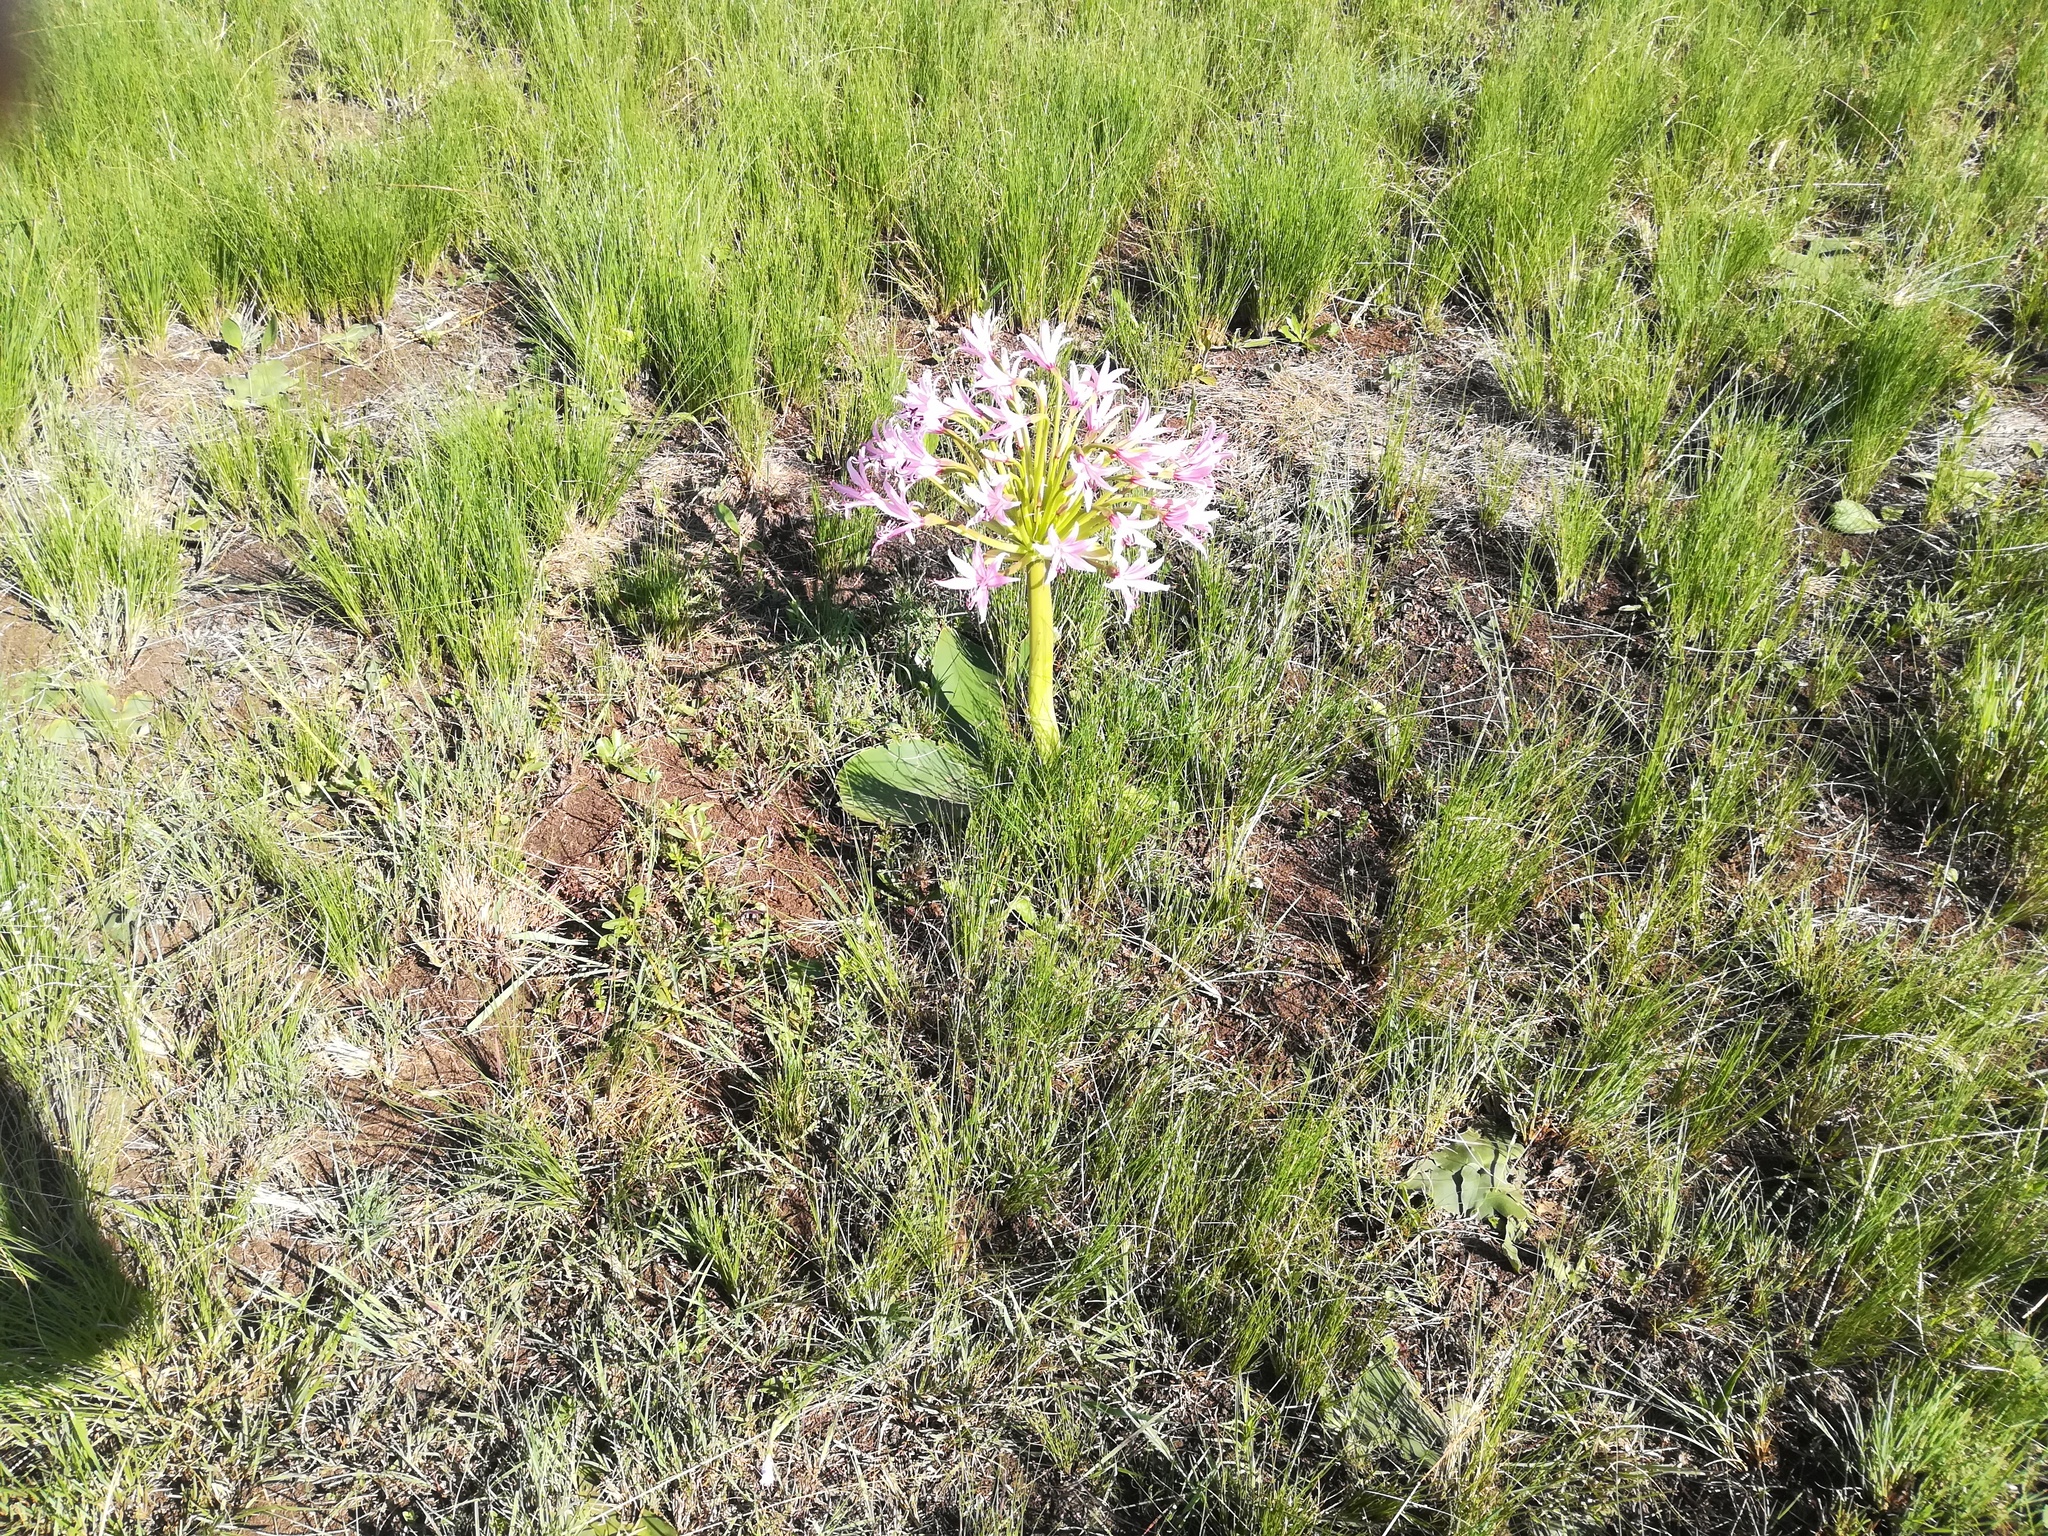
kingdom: Plantae
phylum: Tracheophyta
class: Liliopsida
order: Asparagales
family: Amaryllidaceae
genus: Brunsvigia
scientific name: Brunsvigia radulosa
